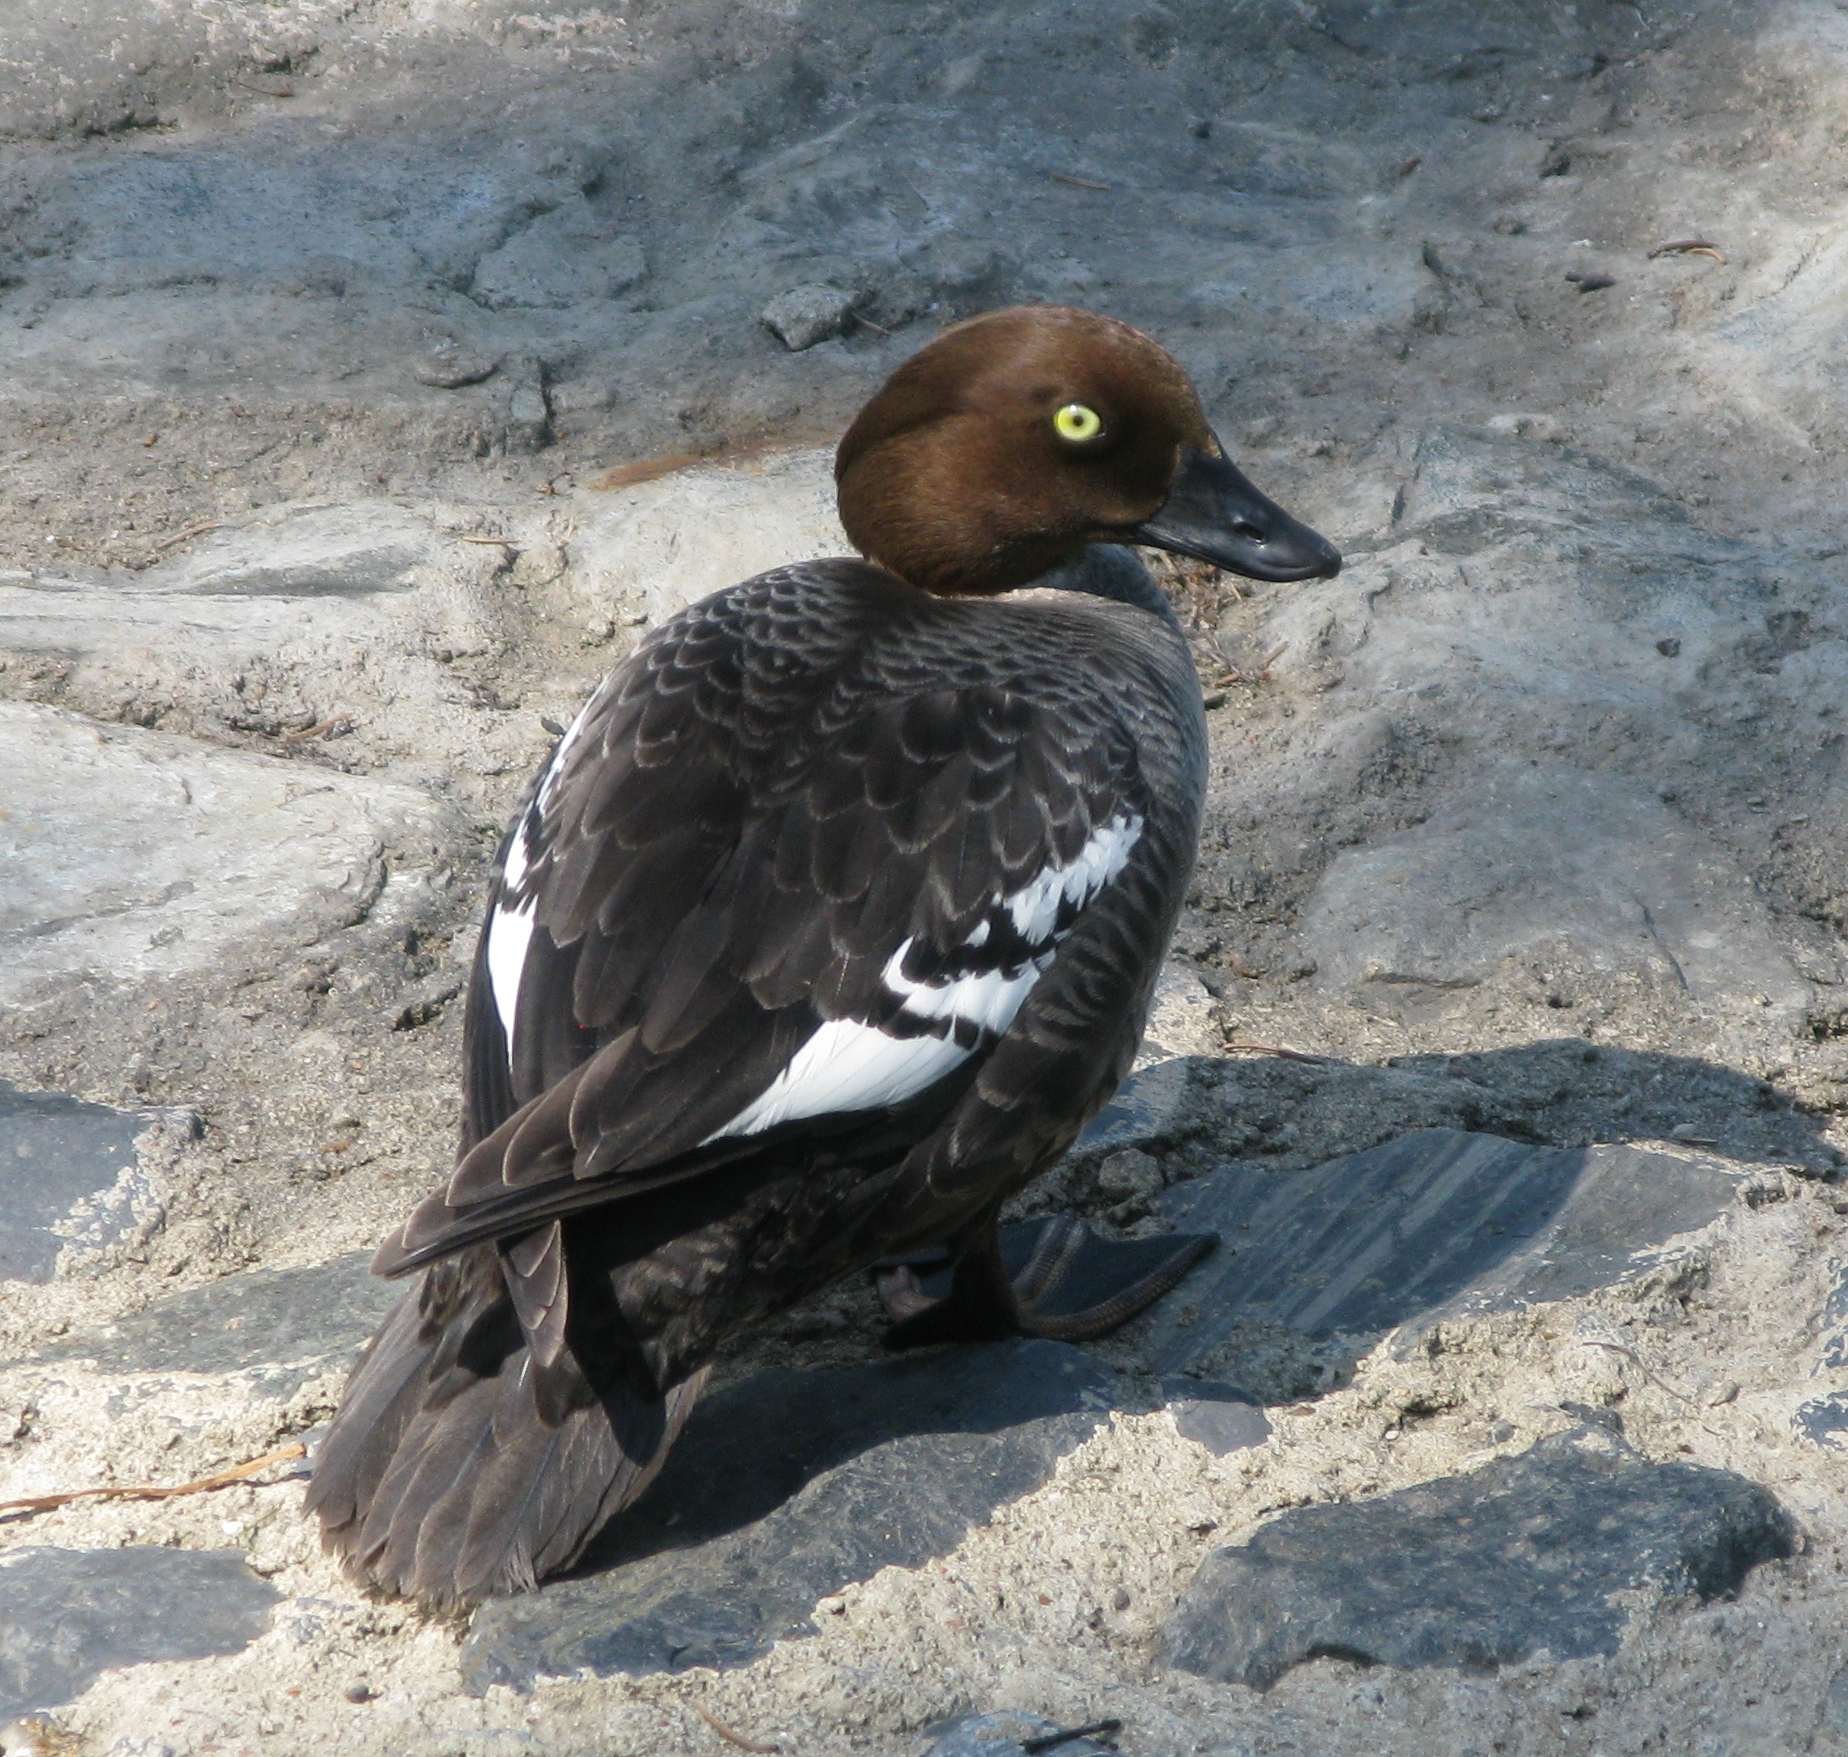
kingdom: Animalia
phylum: Chordata
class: Aves
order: Anseriformes
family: Anatidae
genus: Bucephala
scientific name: Bucephala clangula
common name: Common goldeneye
